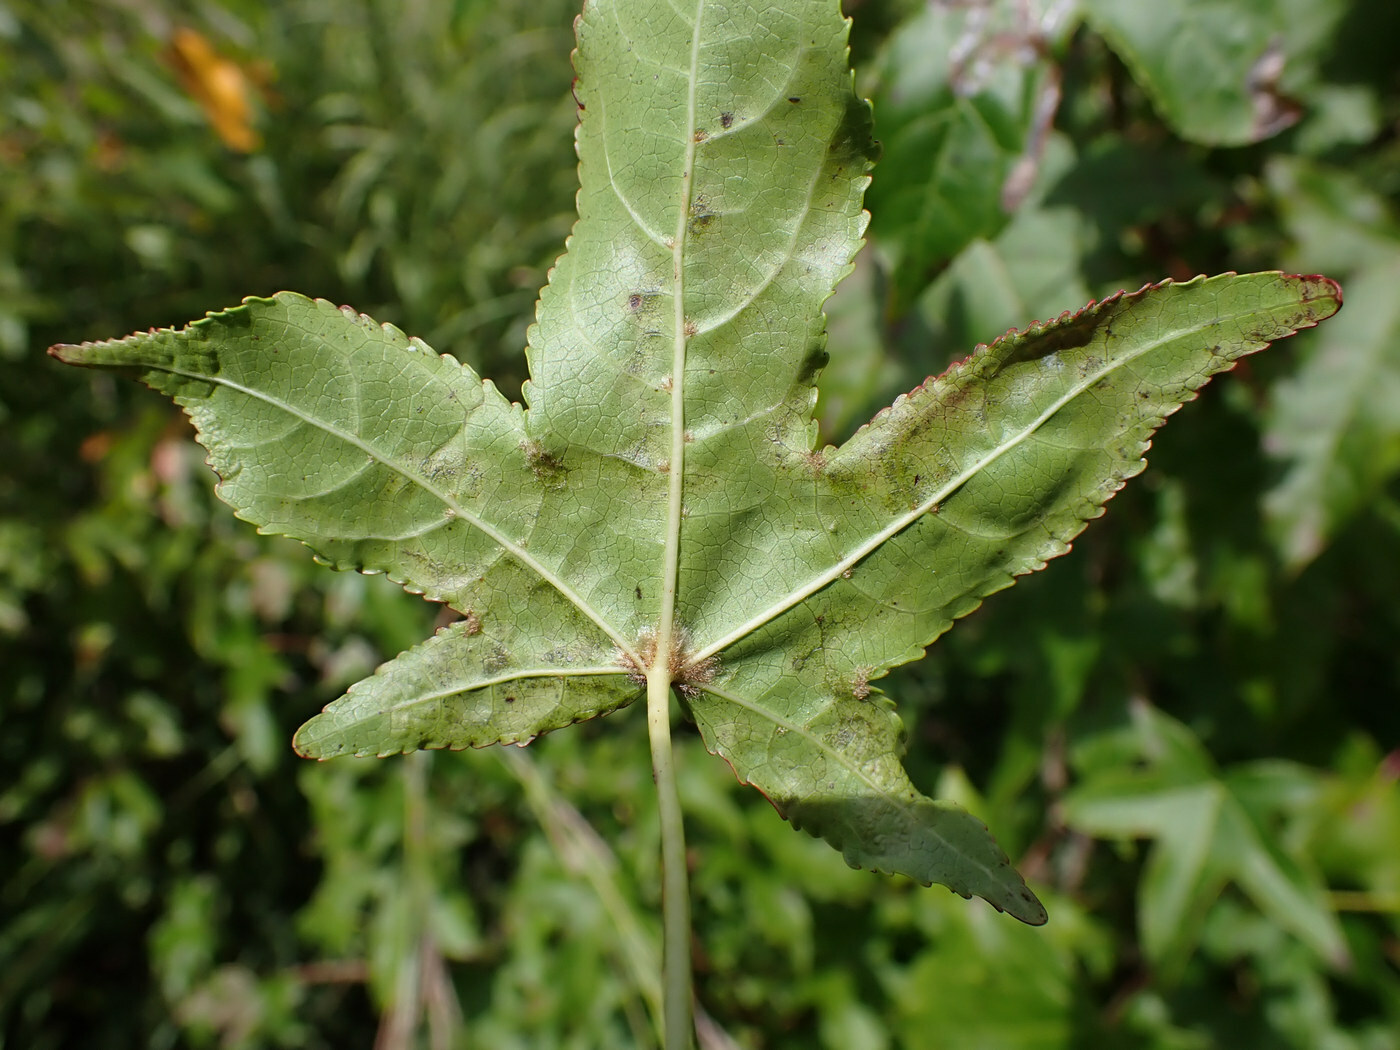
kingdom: Animalia
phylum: Arthropoda
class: Insecta
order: Lepidoptera
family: Gracillariidae
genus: Phyllocnistis
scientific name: Phyllocnistis liquidambarisella
